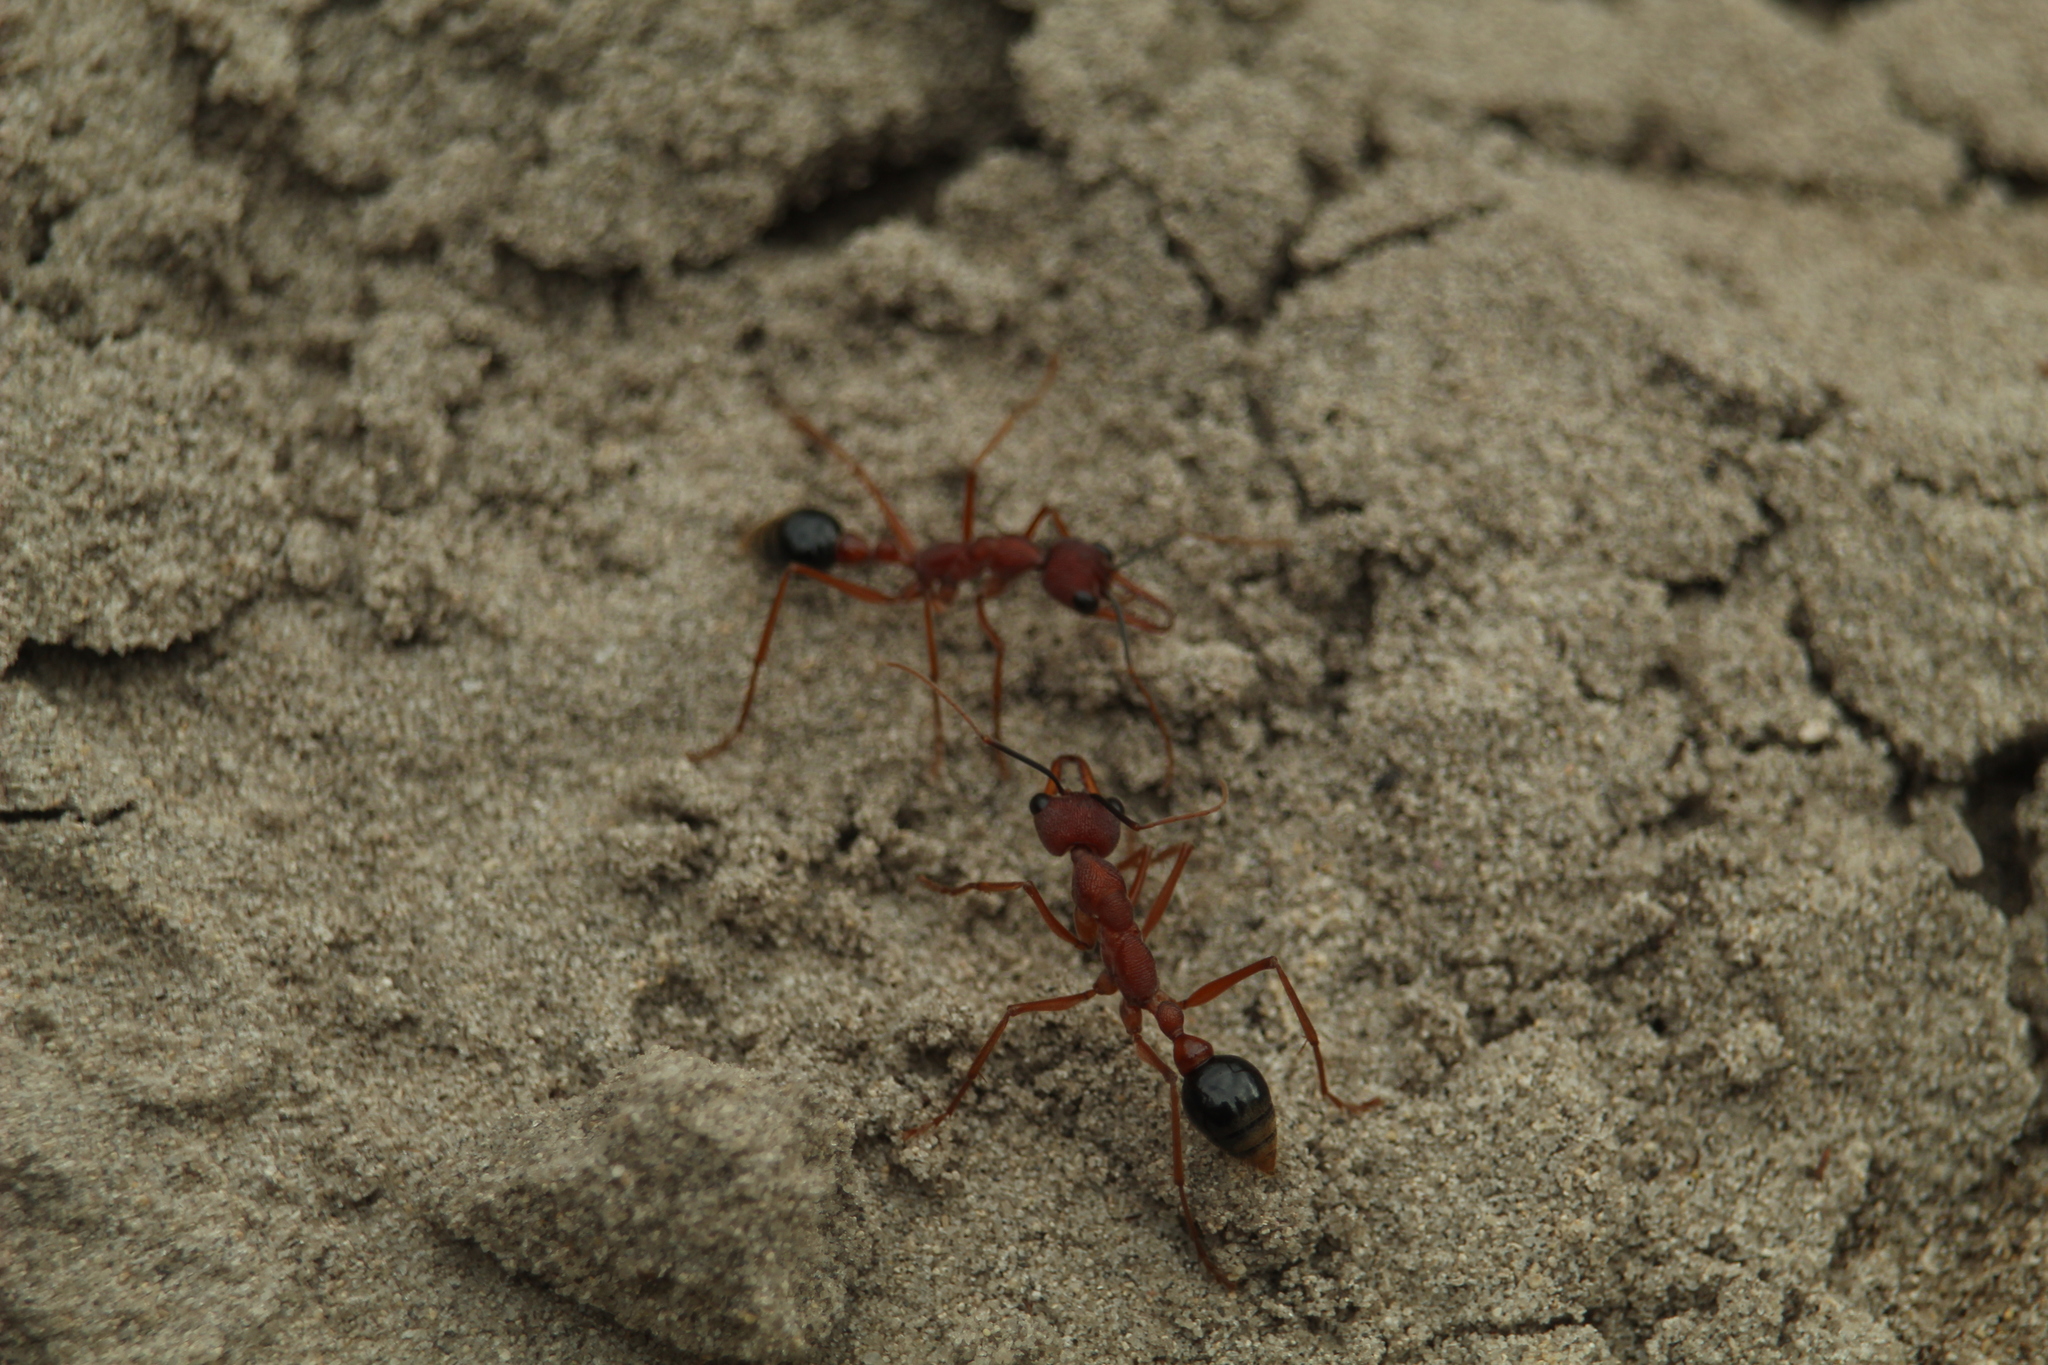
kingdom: Animalia
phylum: Arthropoda
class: Insecta
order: Hymenoptera
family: Formicidae
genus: Myrmecia
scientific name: Myrmecia analis
